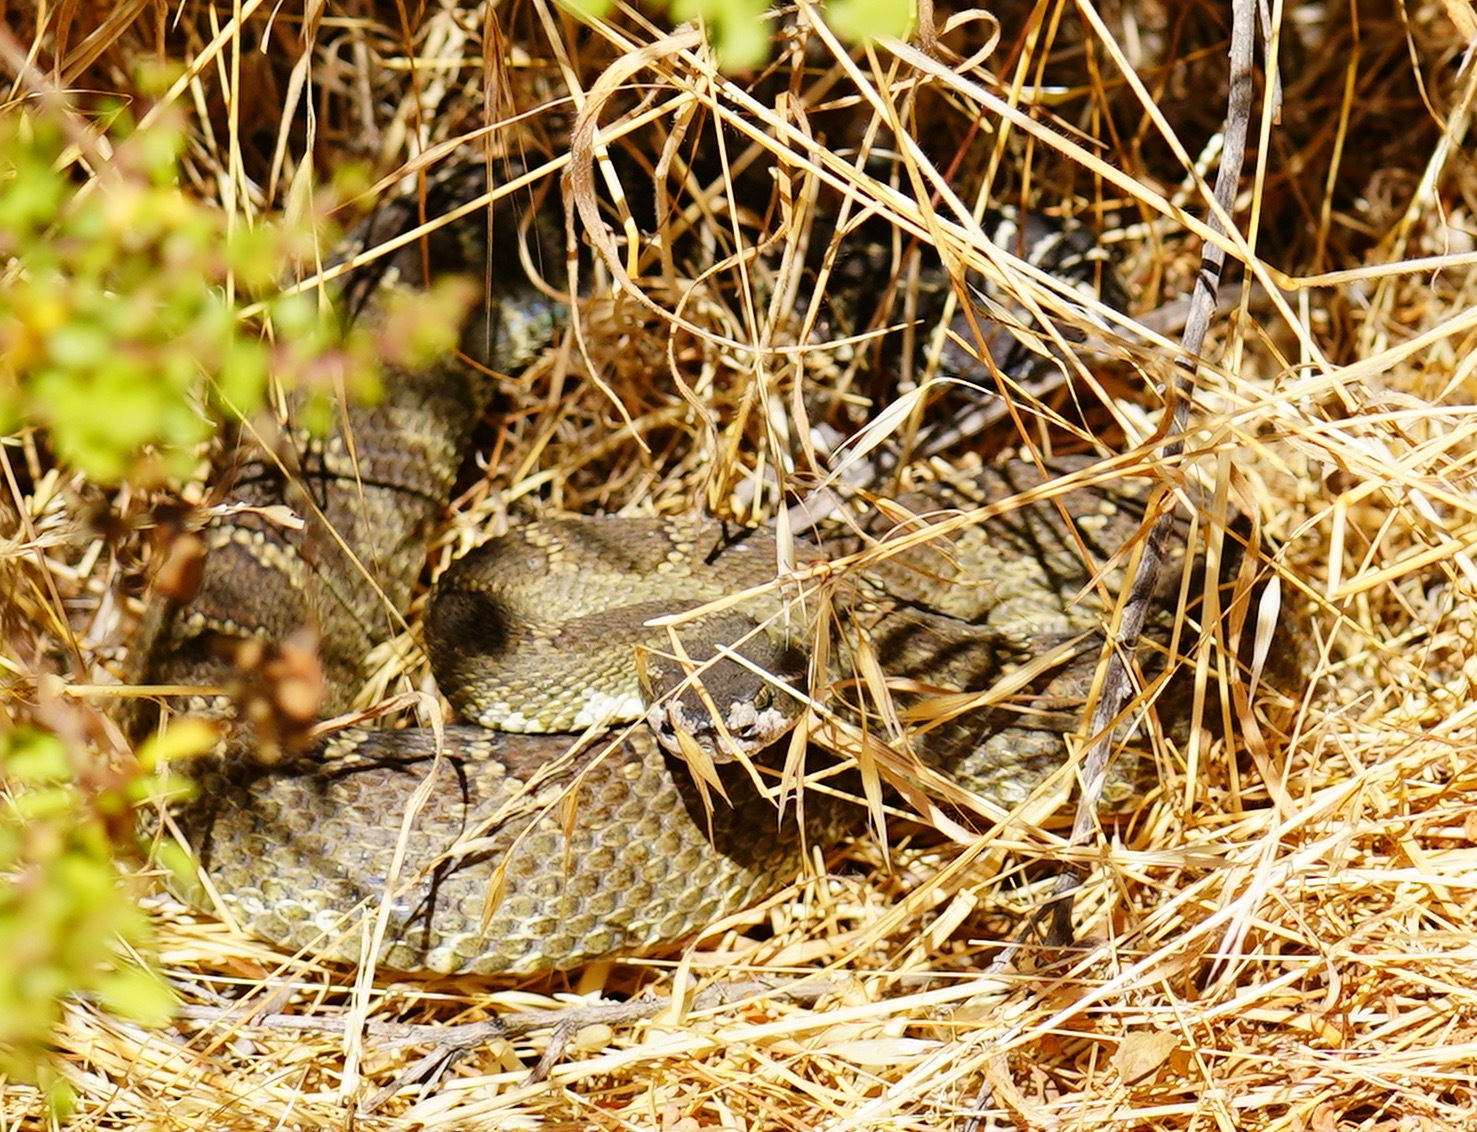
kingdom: Animalia
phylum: Chordata
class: Squamata
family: Viperidae
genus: Crotalus
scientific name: Crotalus oreganus
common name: Abyssus
